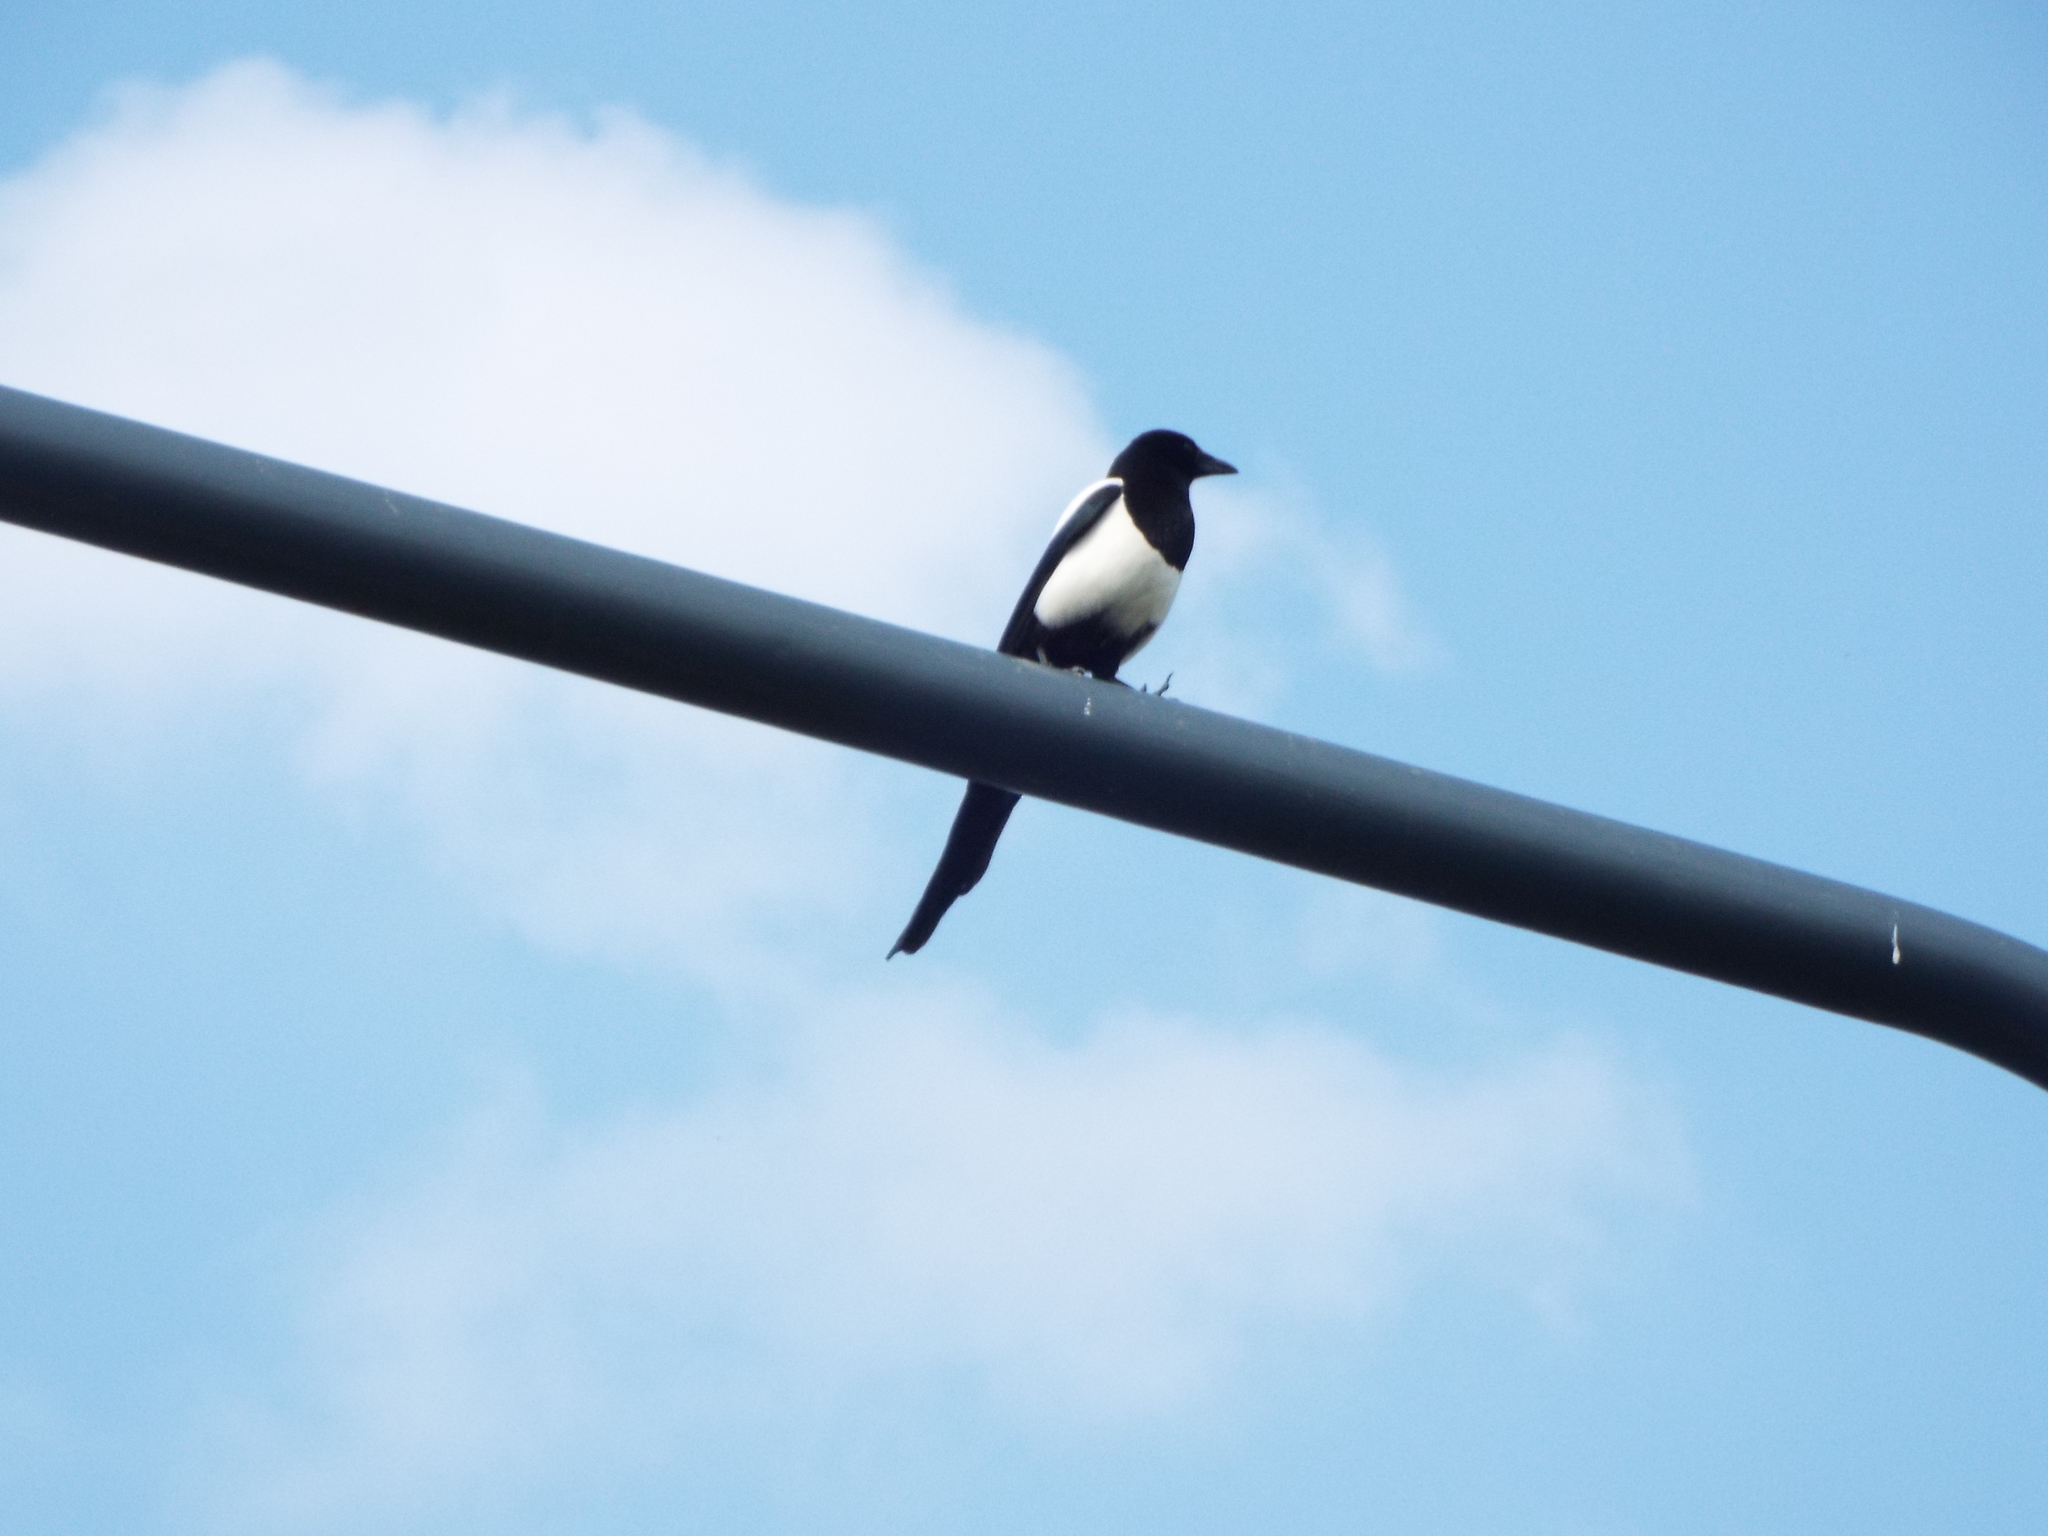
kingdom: Animalia
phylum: Chordata
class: Aves
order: Passeriformes
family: Corvidae
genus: Pica
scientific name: Pica pica
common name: Eurasian magpie
